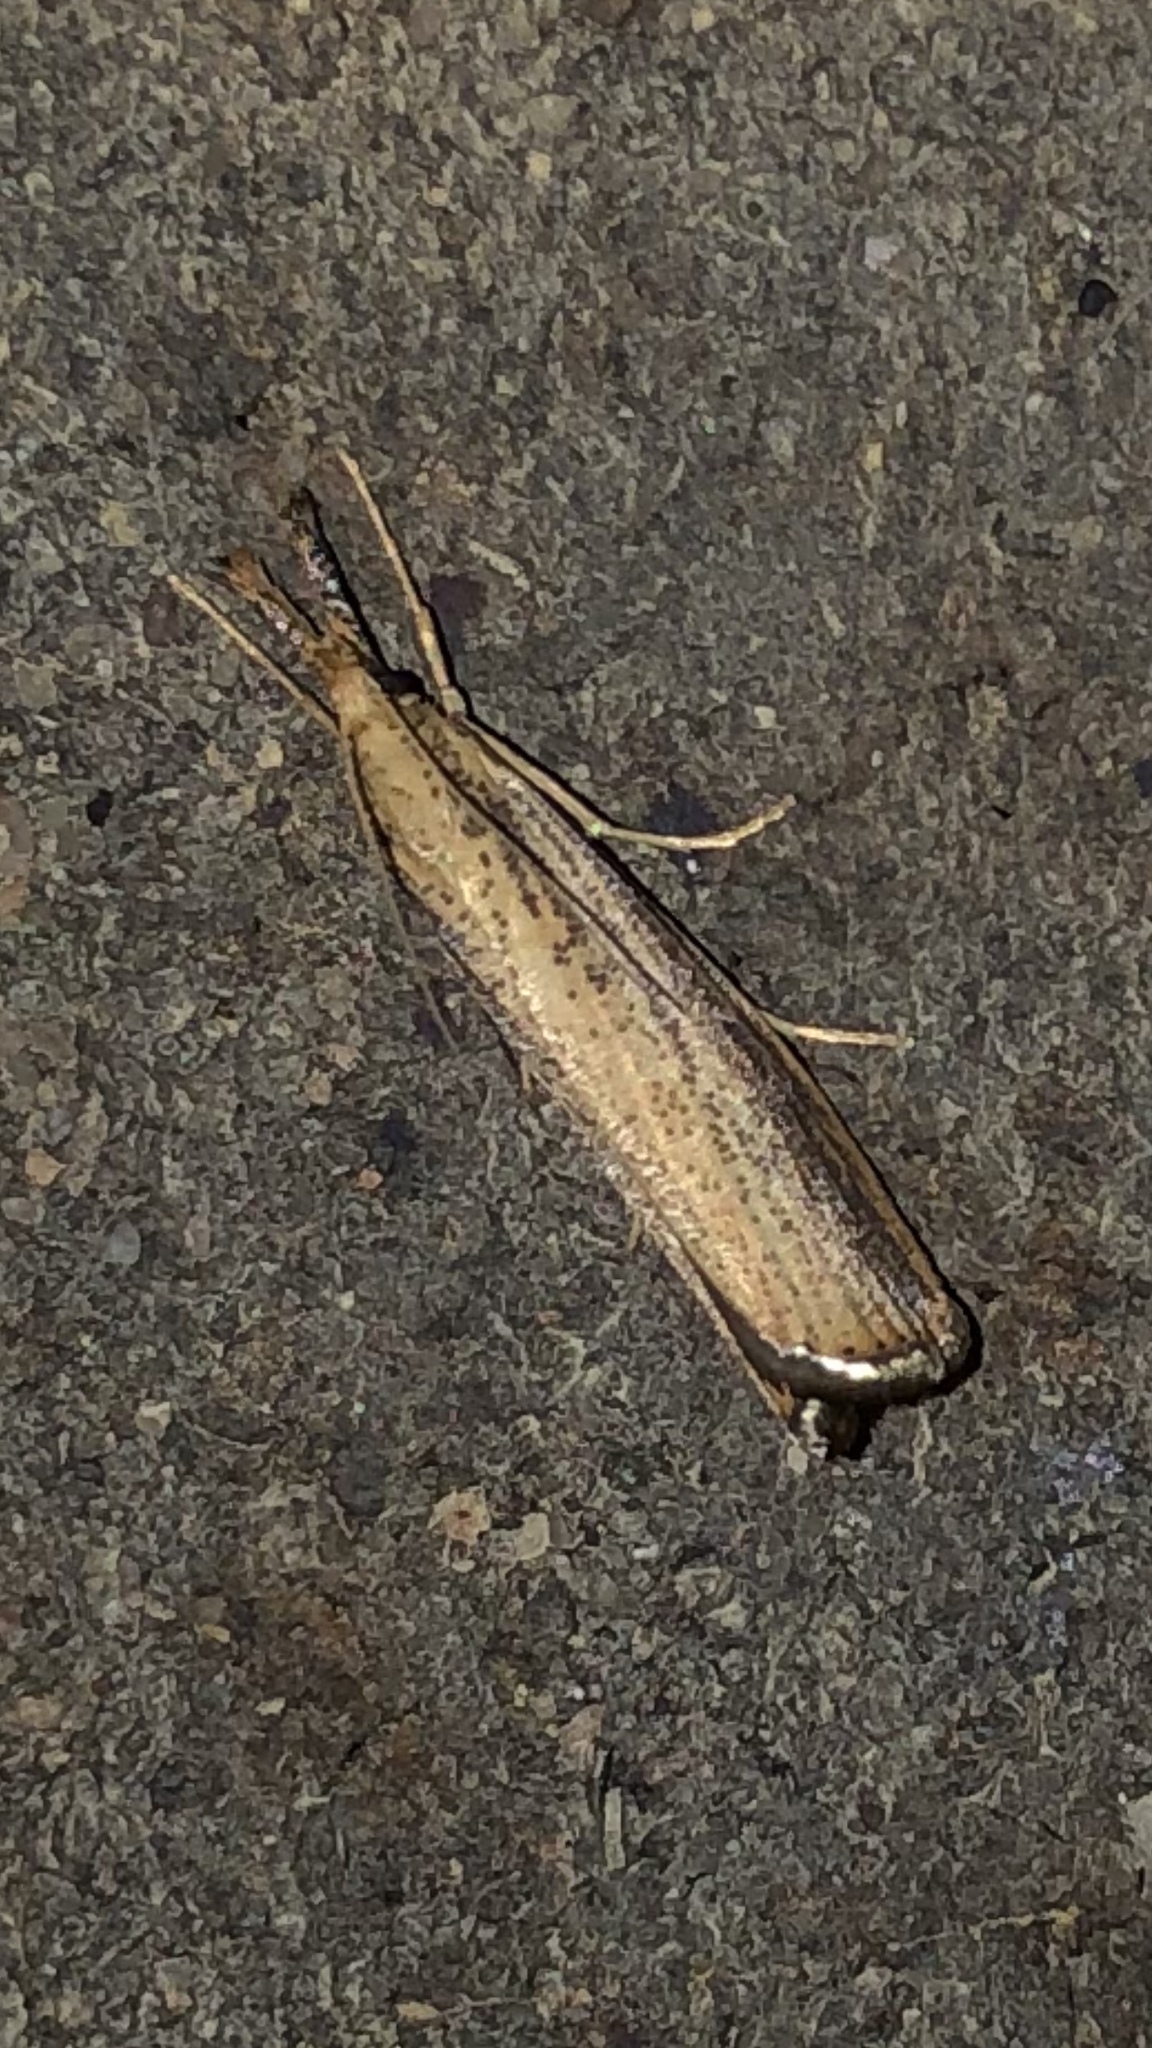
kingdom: Animalia
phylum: Arthropoda
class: Insecta
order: Lepidoptera
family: Crambidae
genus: Agriphila
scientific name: Agriphila vulgivagellus
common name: Vagabond crambus moth
